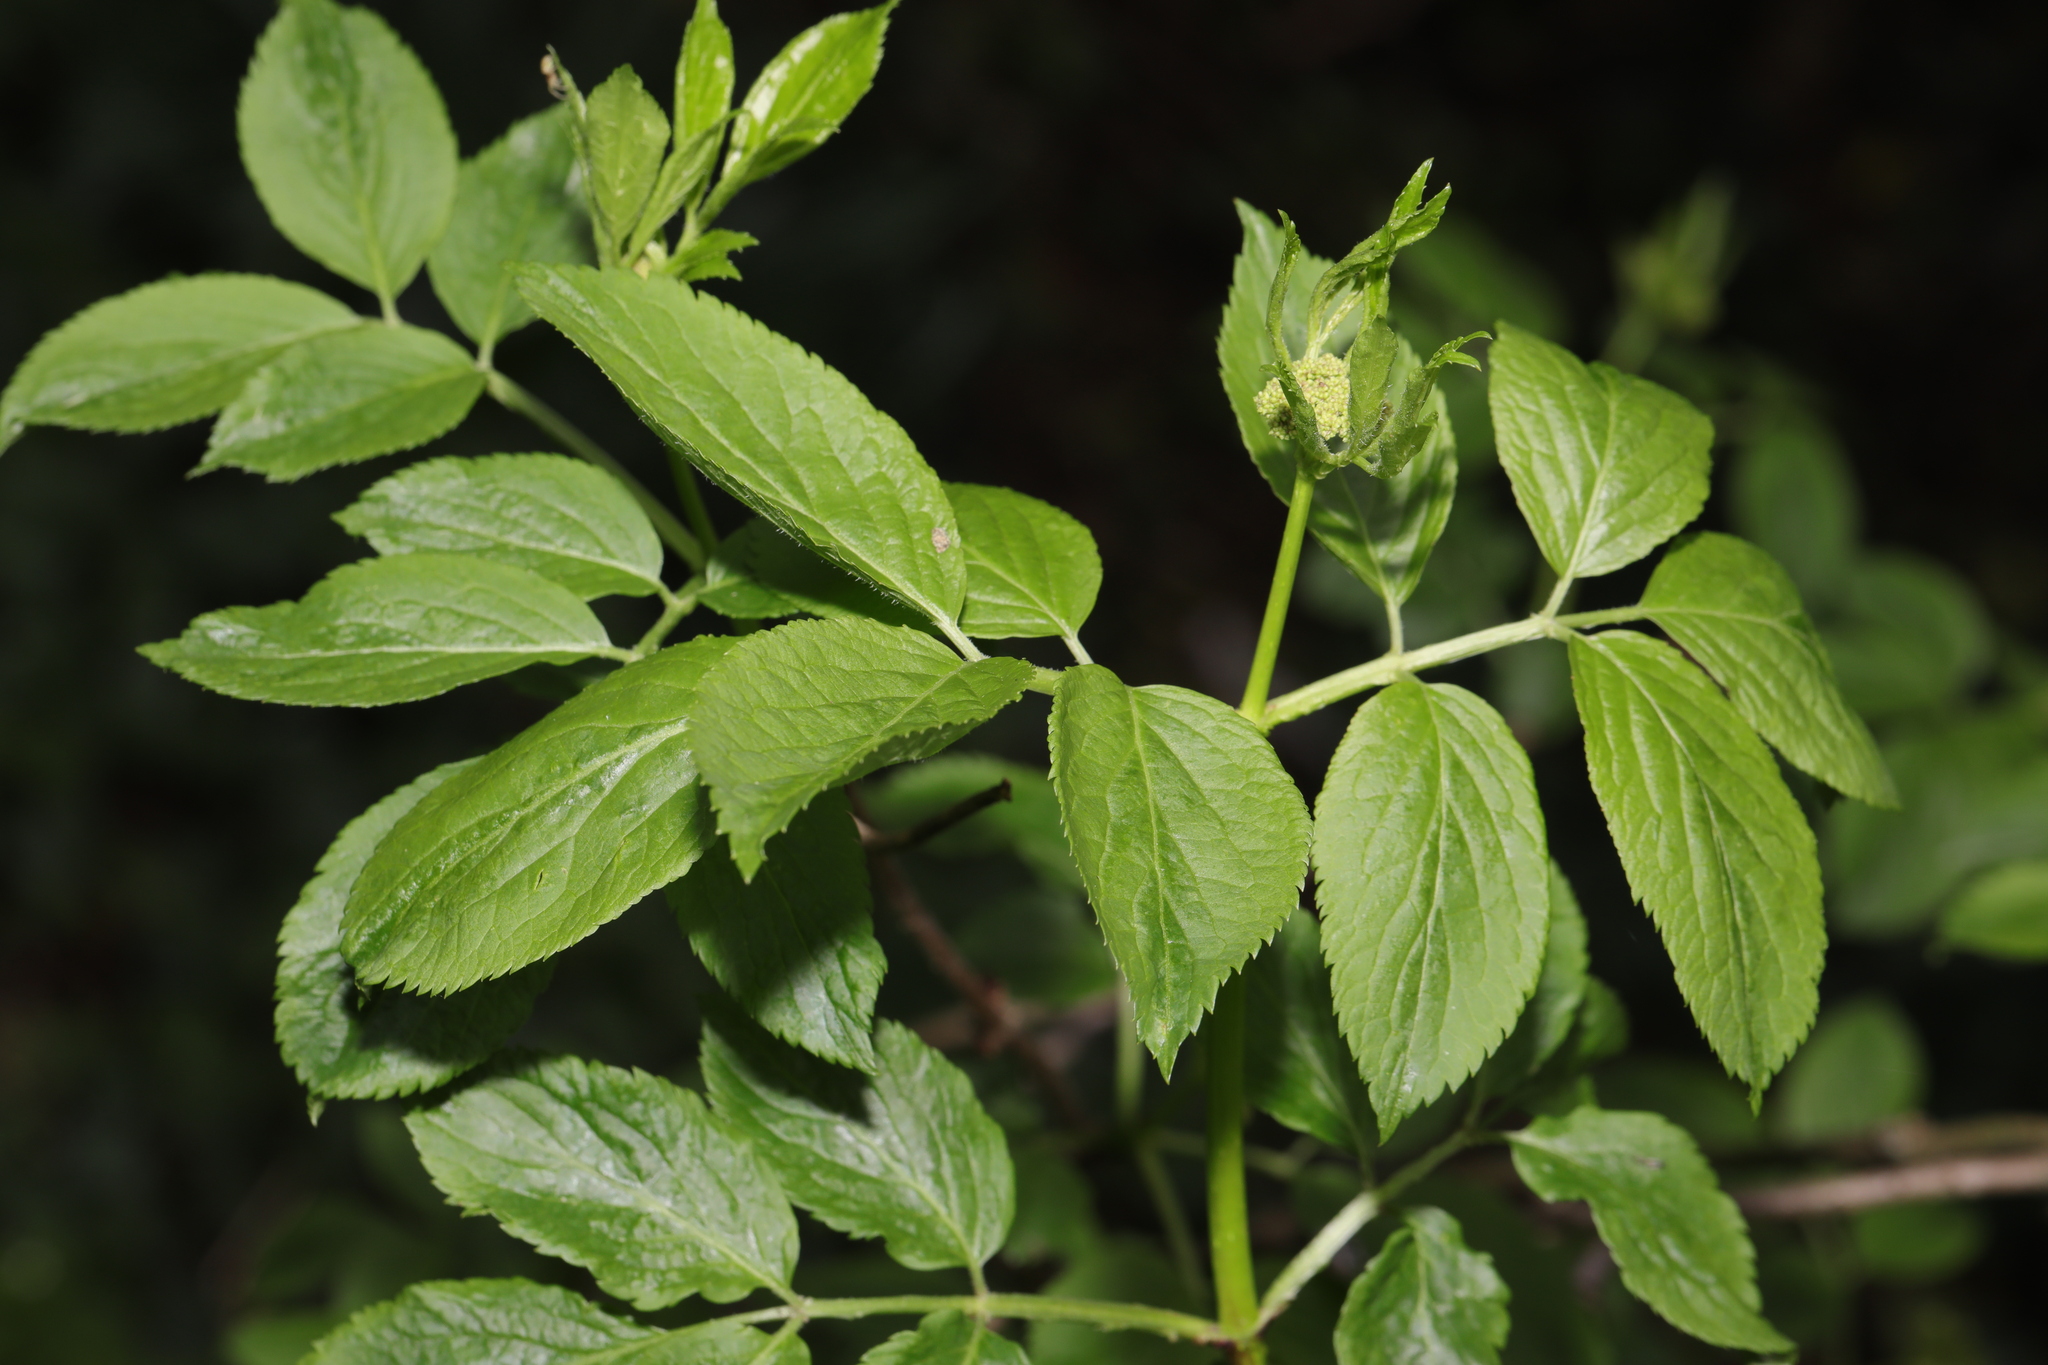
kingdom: Plantae
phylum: Tracheophyta
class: Magnoliopsida
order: Dipsacales
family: Viburnaceae
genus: Sambucus
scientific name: Sambucus nigra
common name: Elder
